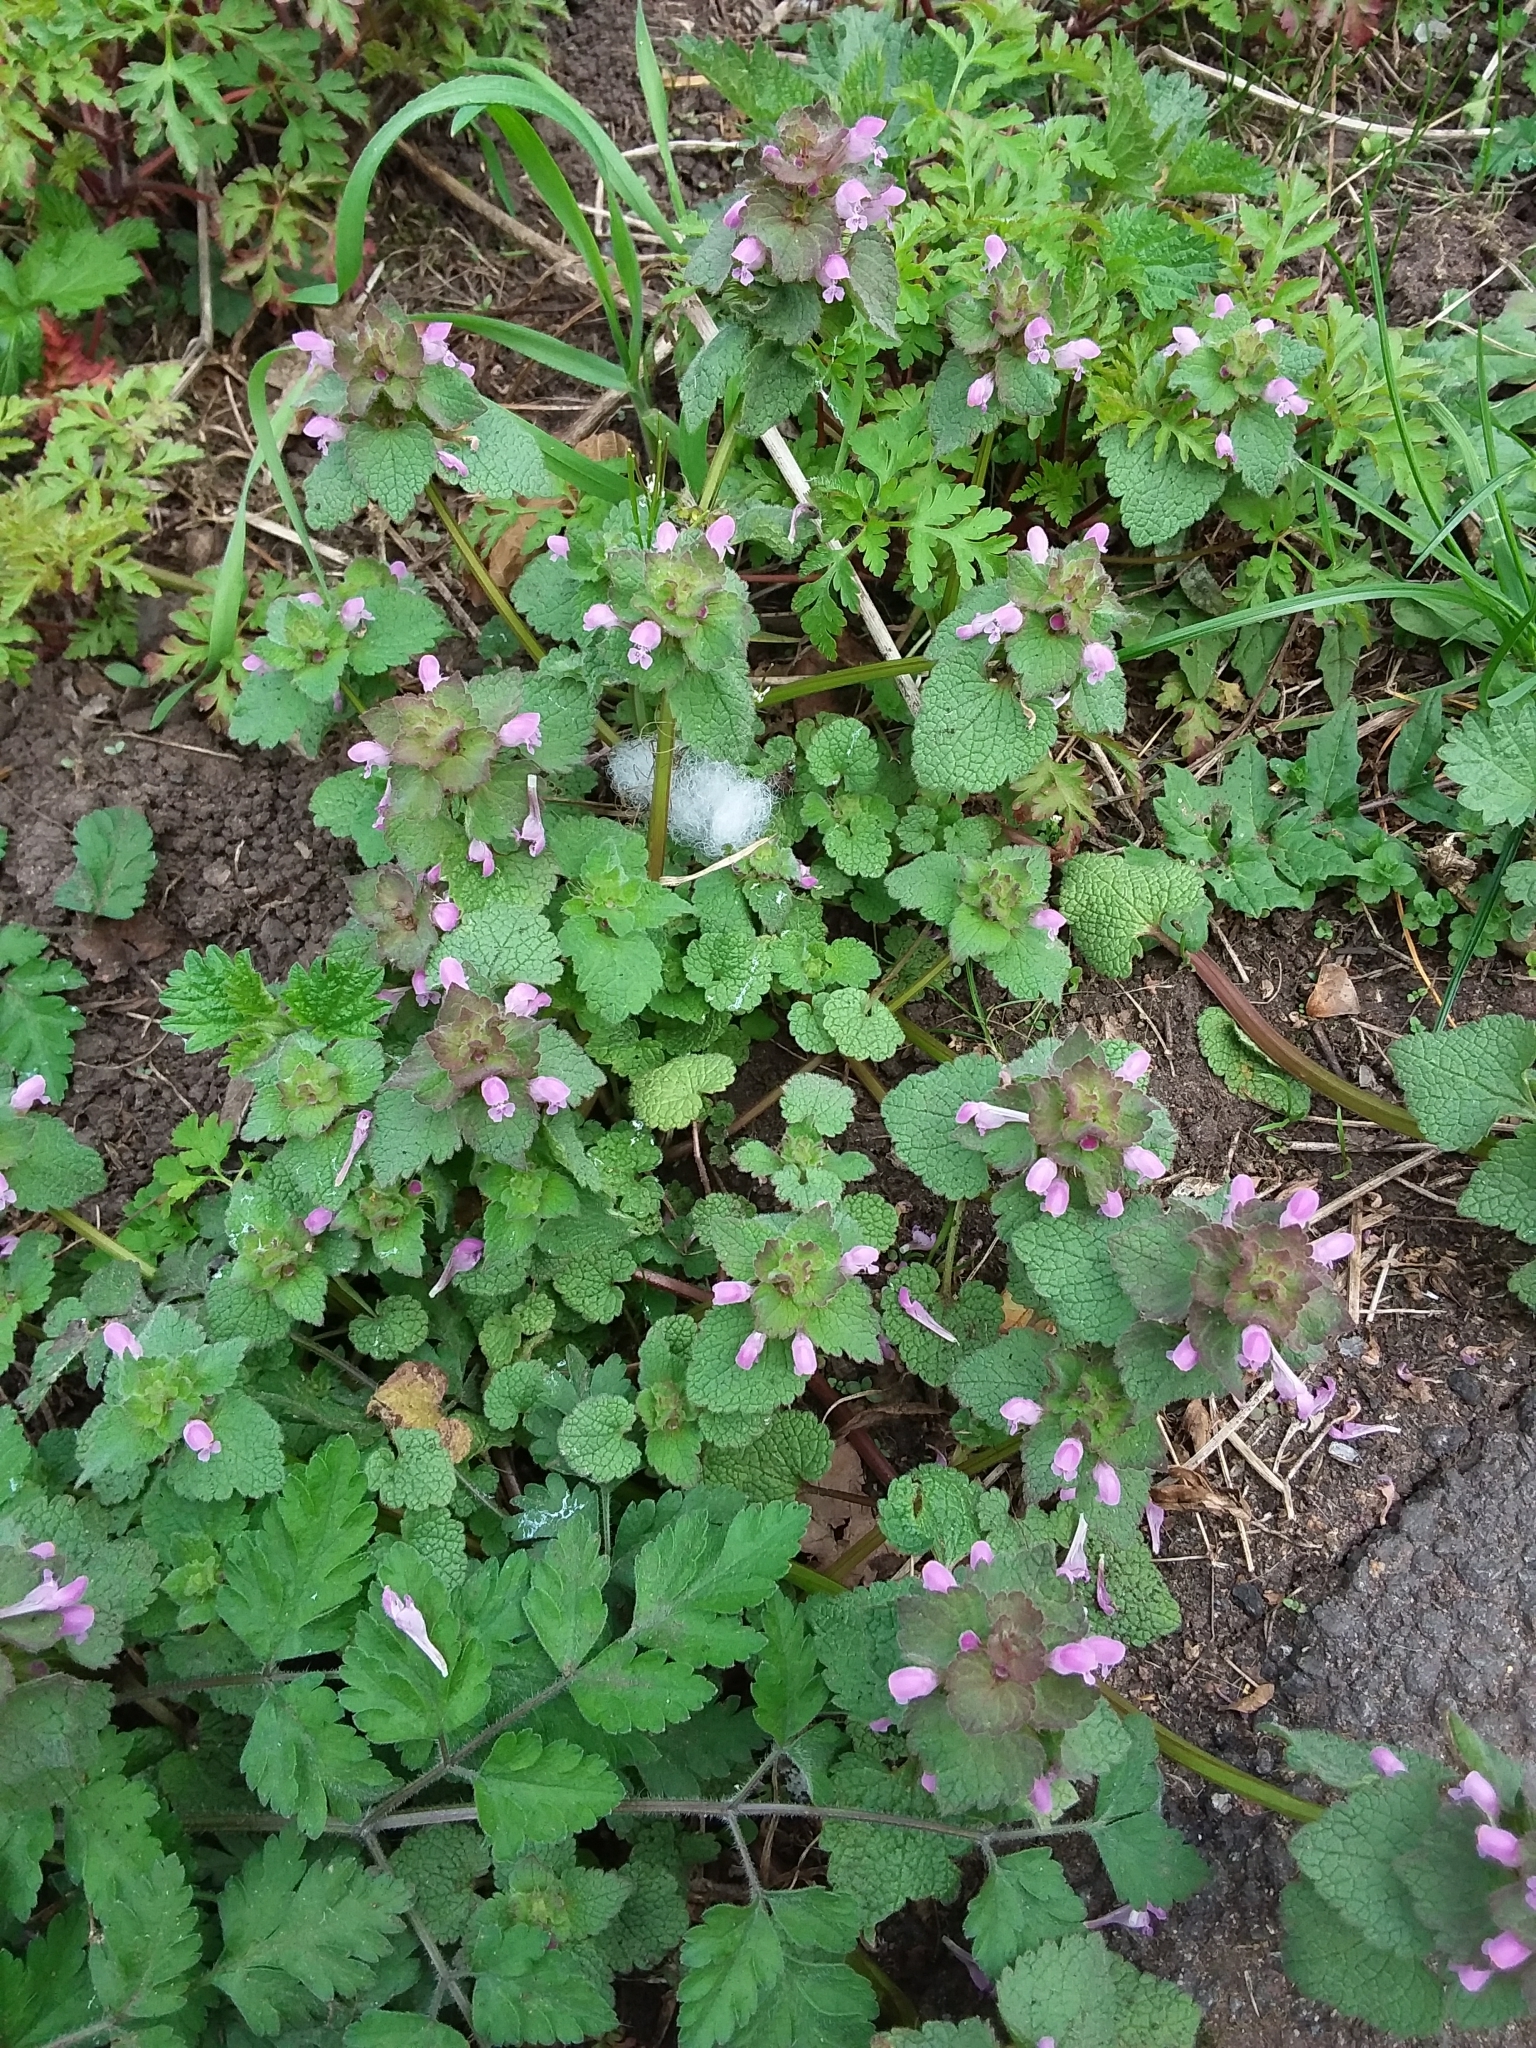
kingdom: Plantae
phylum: Tracheophyta
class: Magnoliopsida
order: Lamiales
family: Lamiaceae
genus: Lamium
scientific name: Lamium purpureum
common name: Red dead-nettle
